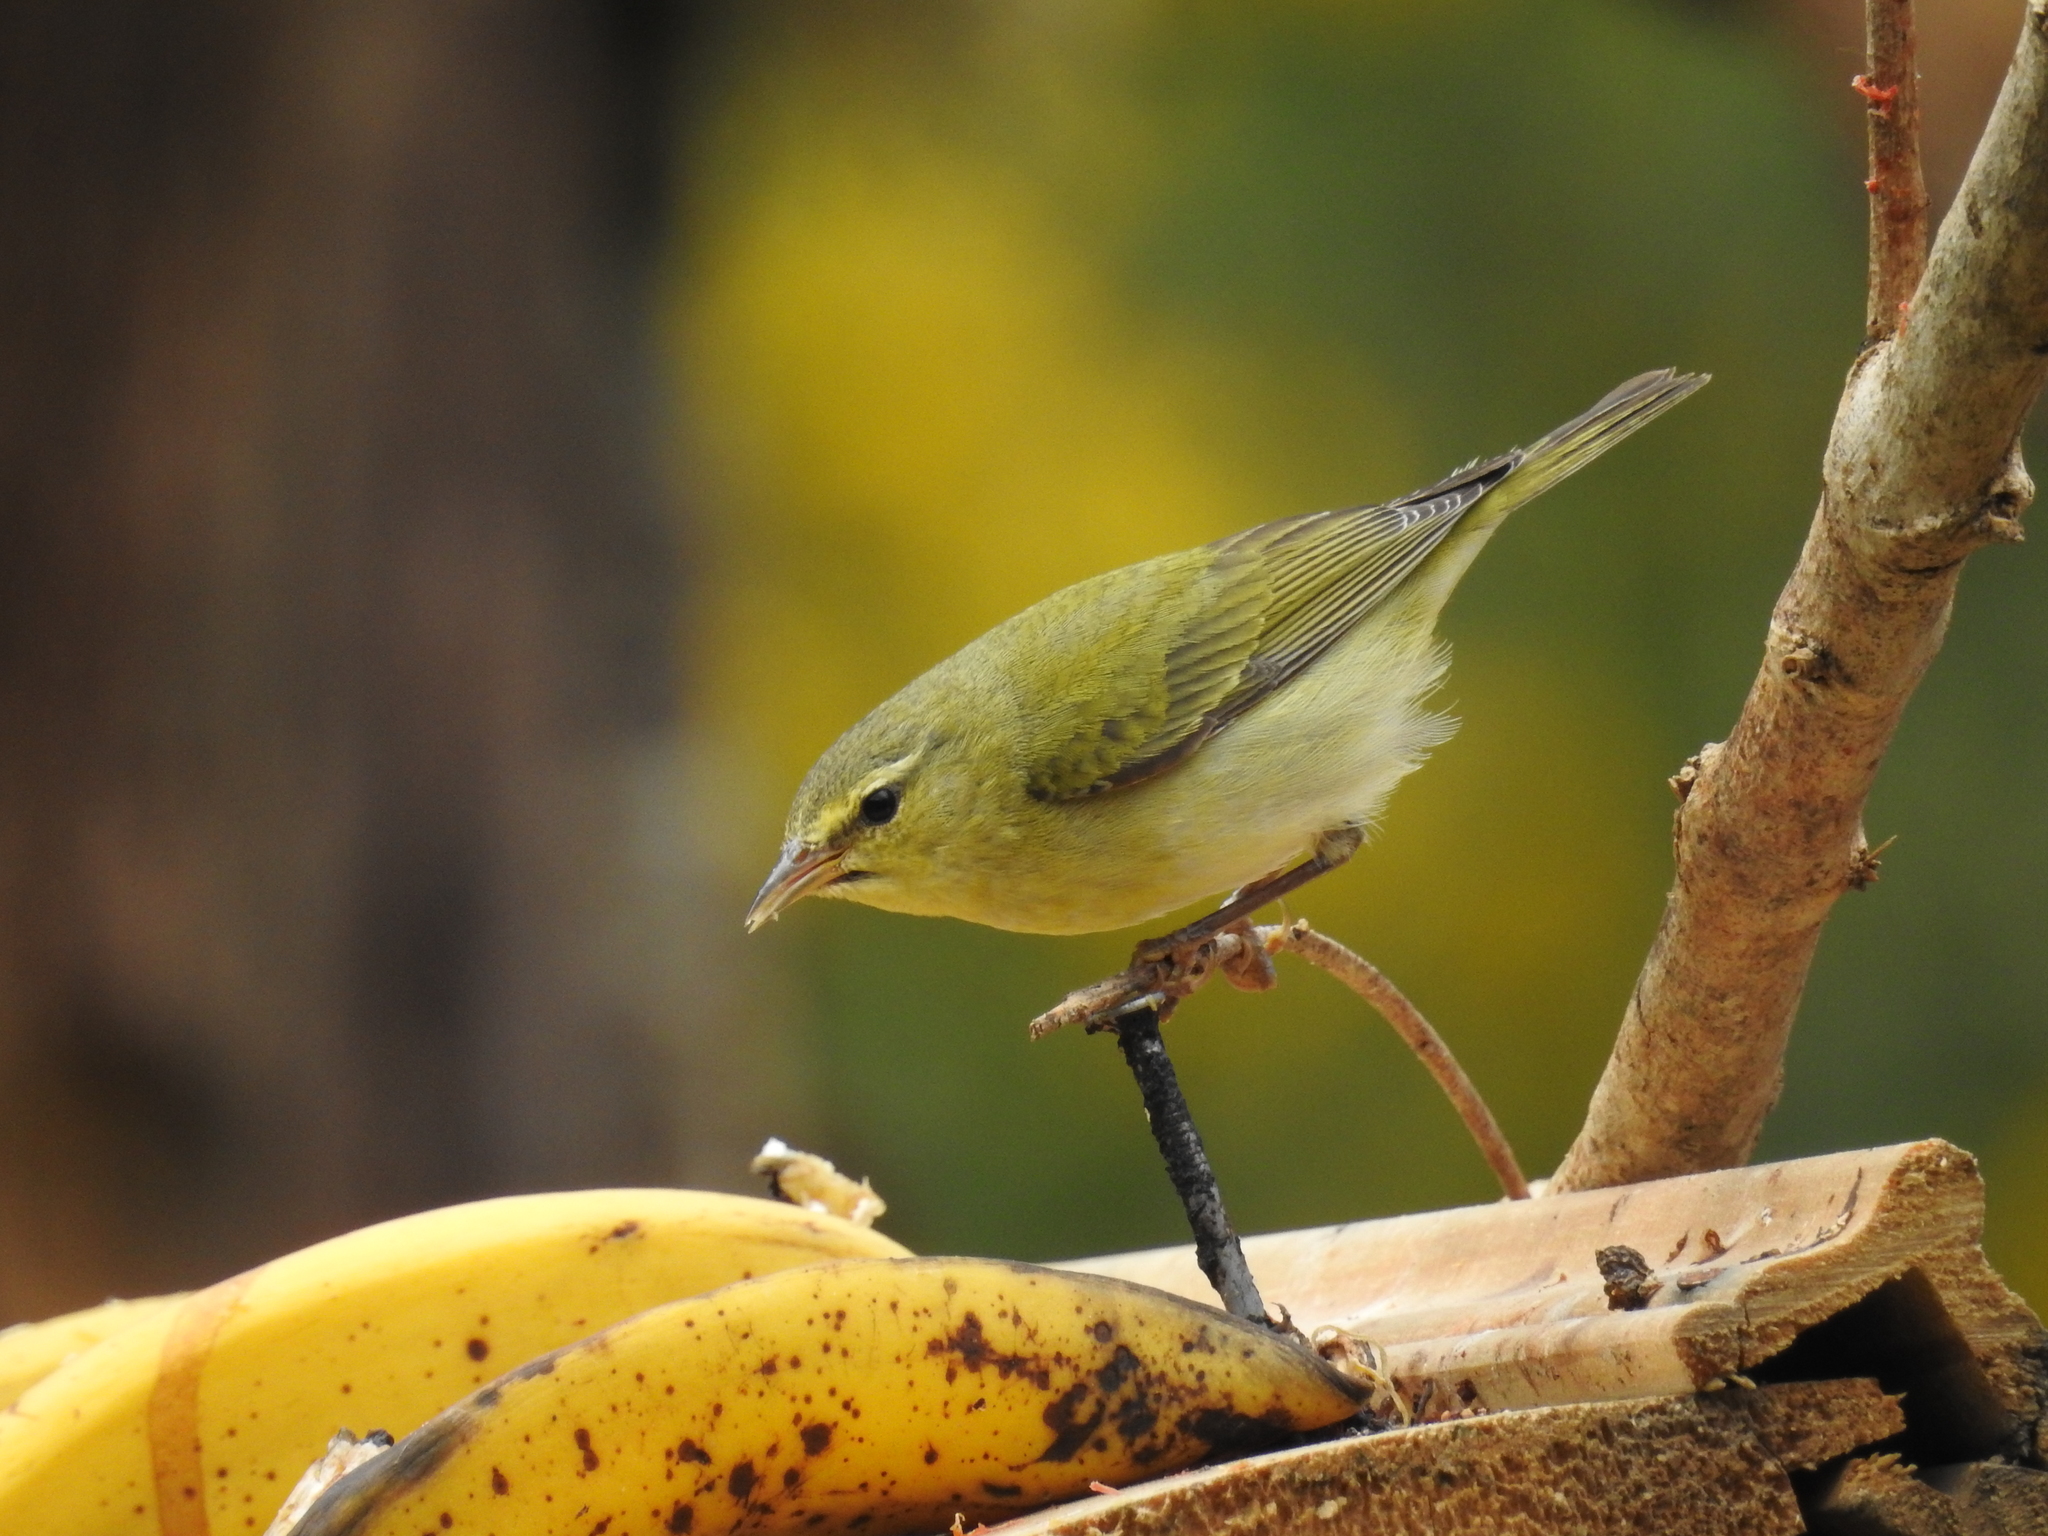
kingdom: Animalia
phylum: Chordata
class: Aves
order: Passeriformes
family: Parulidae
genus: Leiothlypis
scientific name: Leiothlypis peregrina
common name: Tennessee warbler
